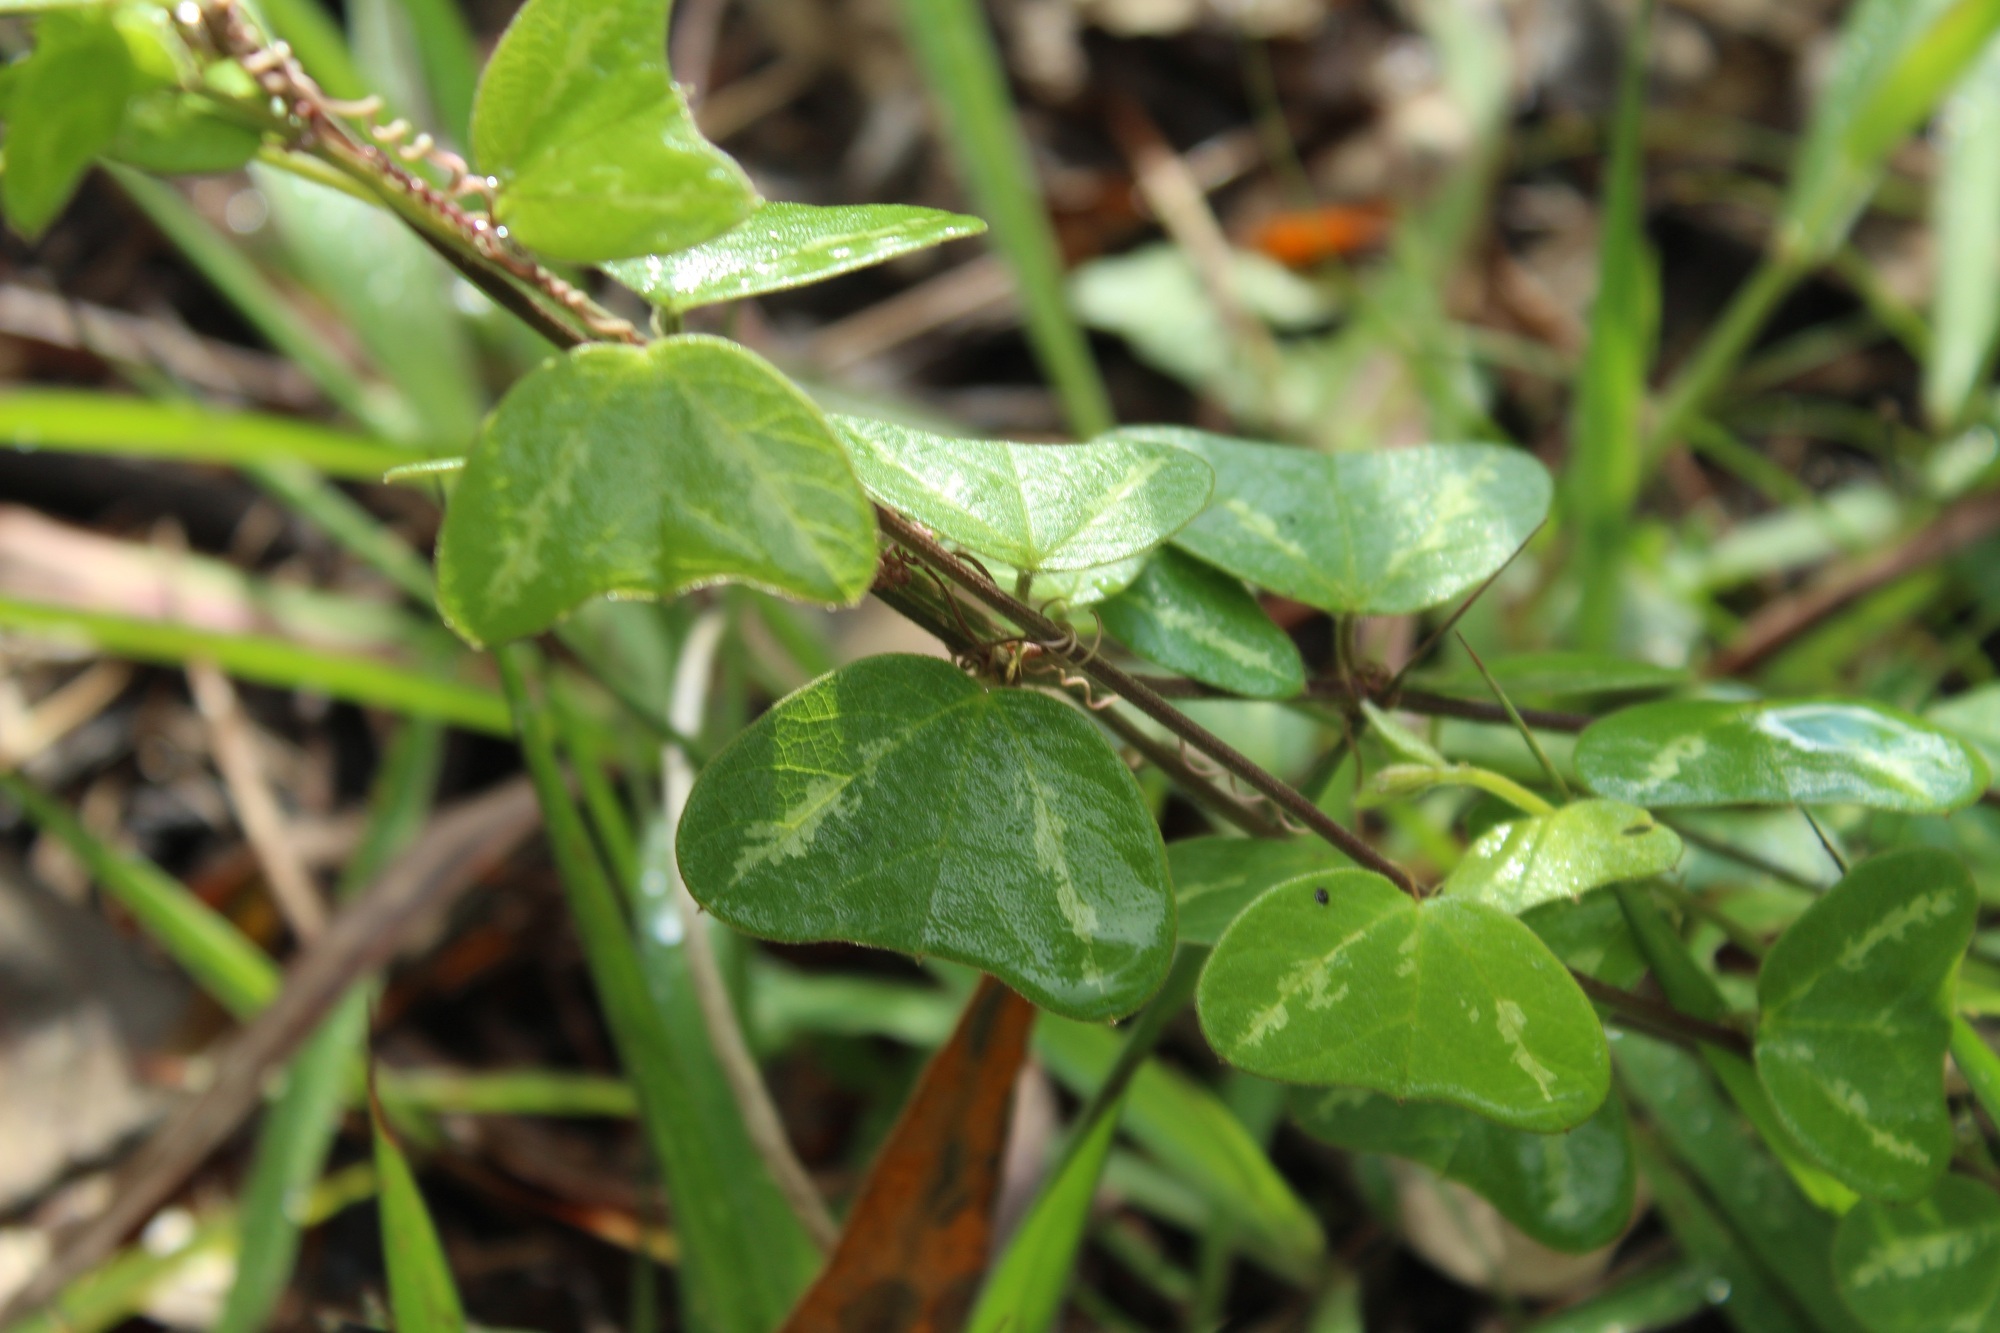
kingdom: Plantae
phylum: Tracheophyta
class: Magnoliopsida
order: Malpighiales
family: Passifloraceae
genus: Passiflora
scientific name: Passiflora bogotensis
